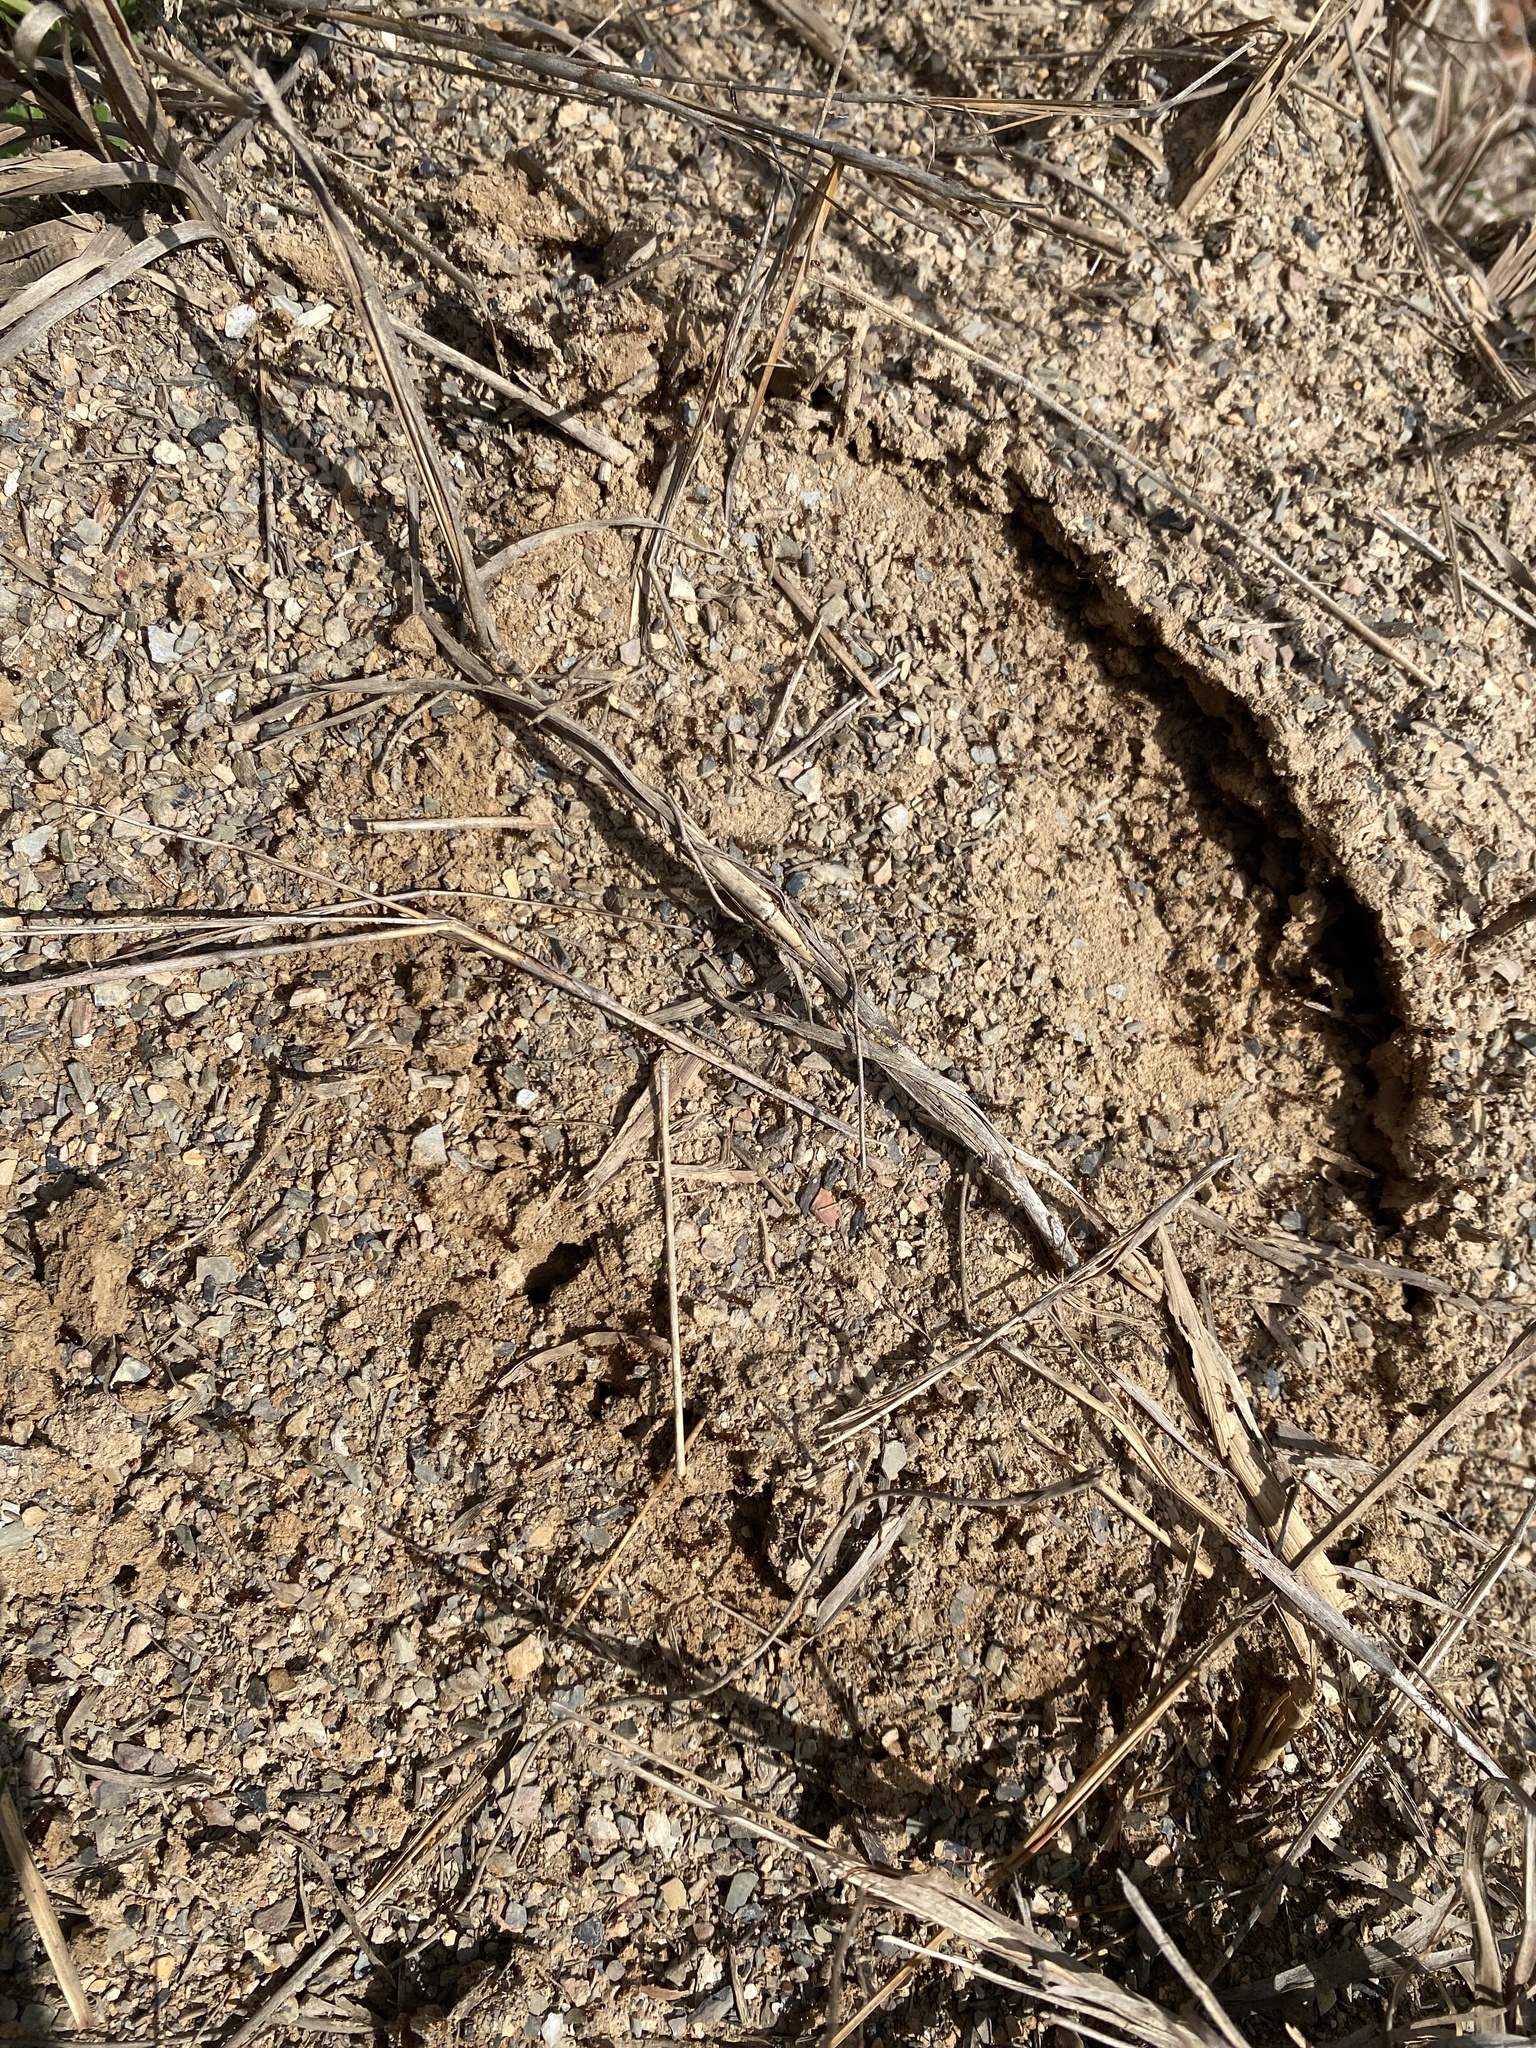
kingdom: Animalia
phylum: Arthropoda
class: Insecta
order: Hymenoptera
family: Formicidae
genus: Solenopsis
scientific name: Solenopsis invicta
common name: Red imported fire ant
